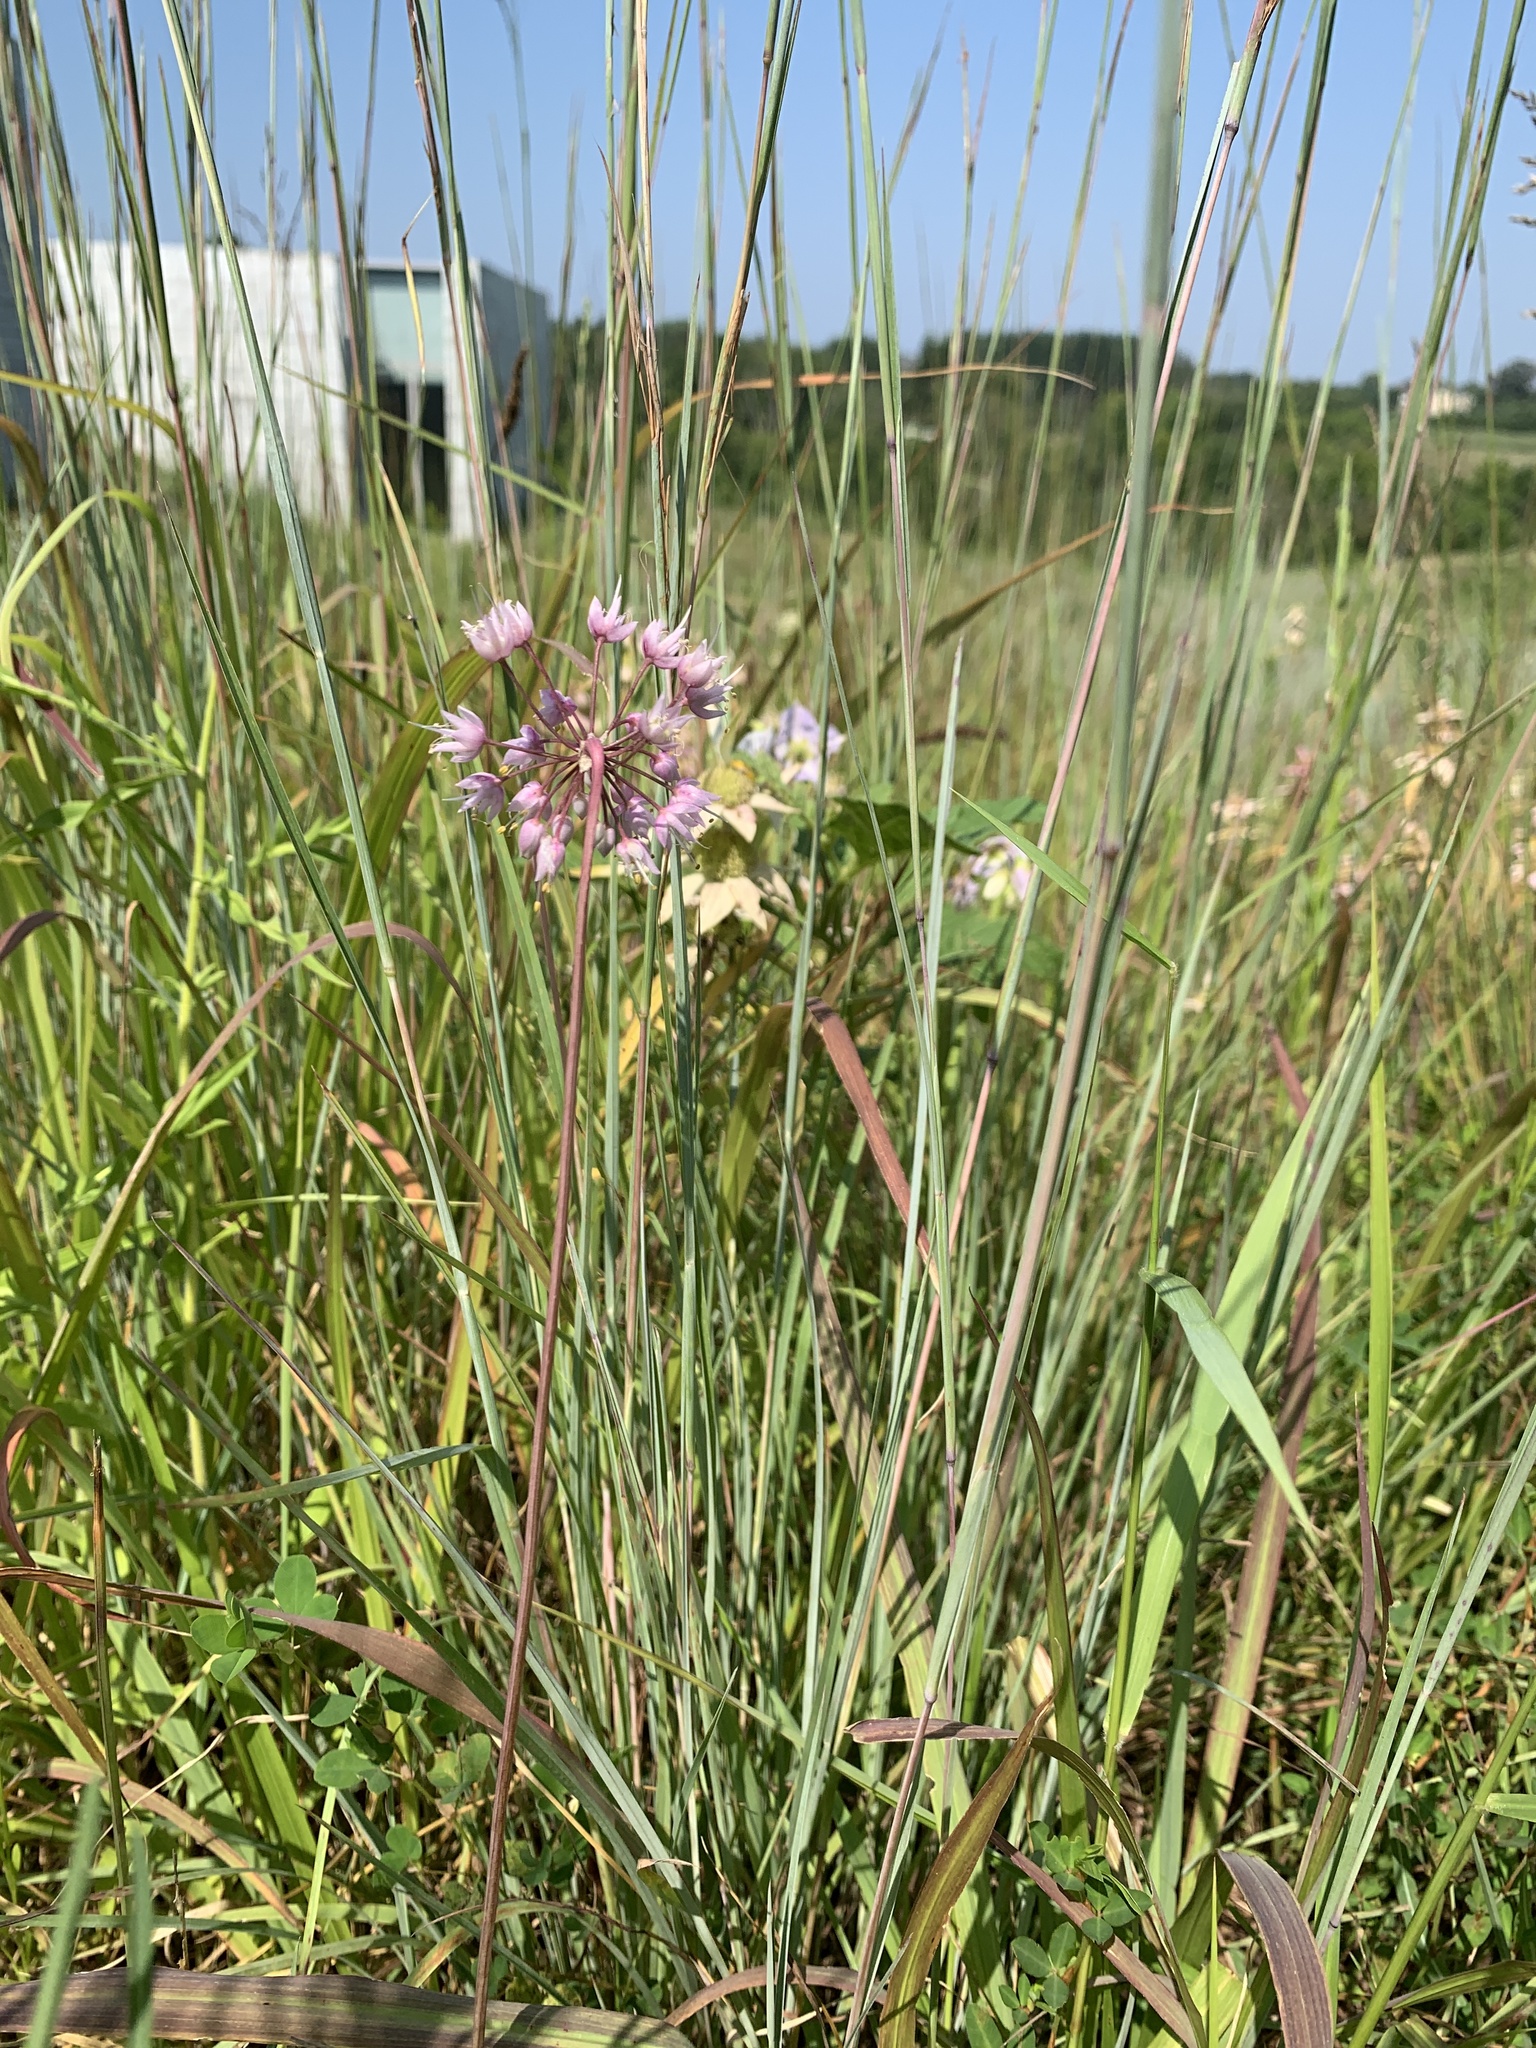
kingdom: Plantae
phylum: Tracheophyta
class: Liliopsida
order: Asparagales
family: Amaryllidaceae
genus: Allium
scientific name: Allium cernuum
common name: Nodding onion
